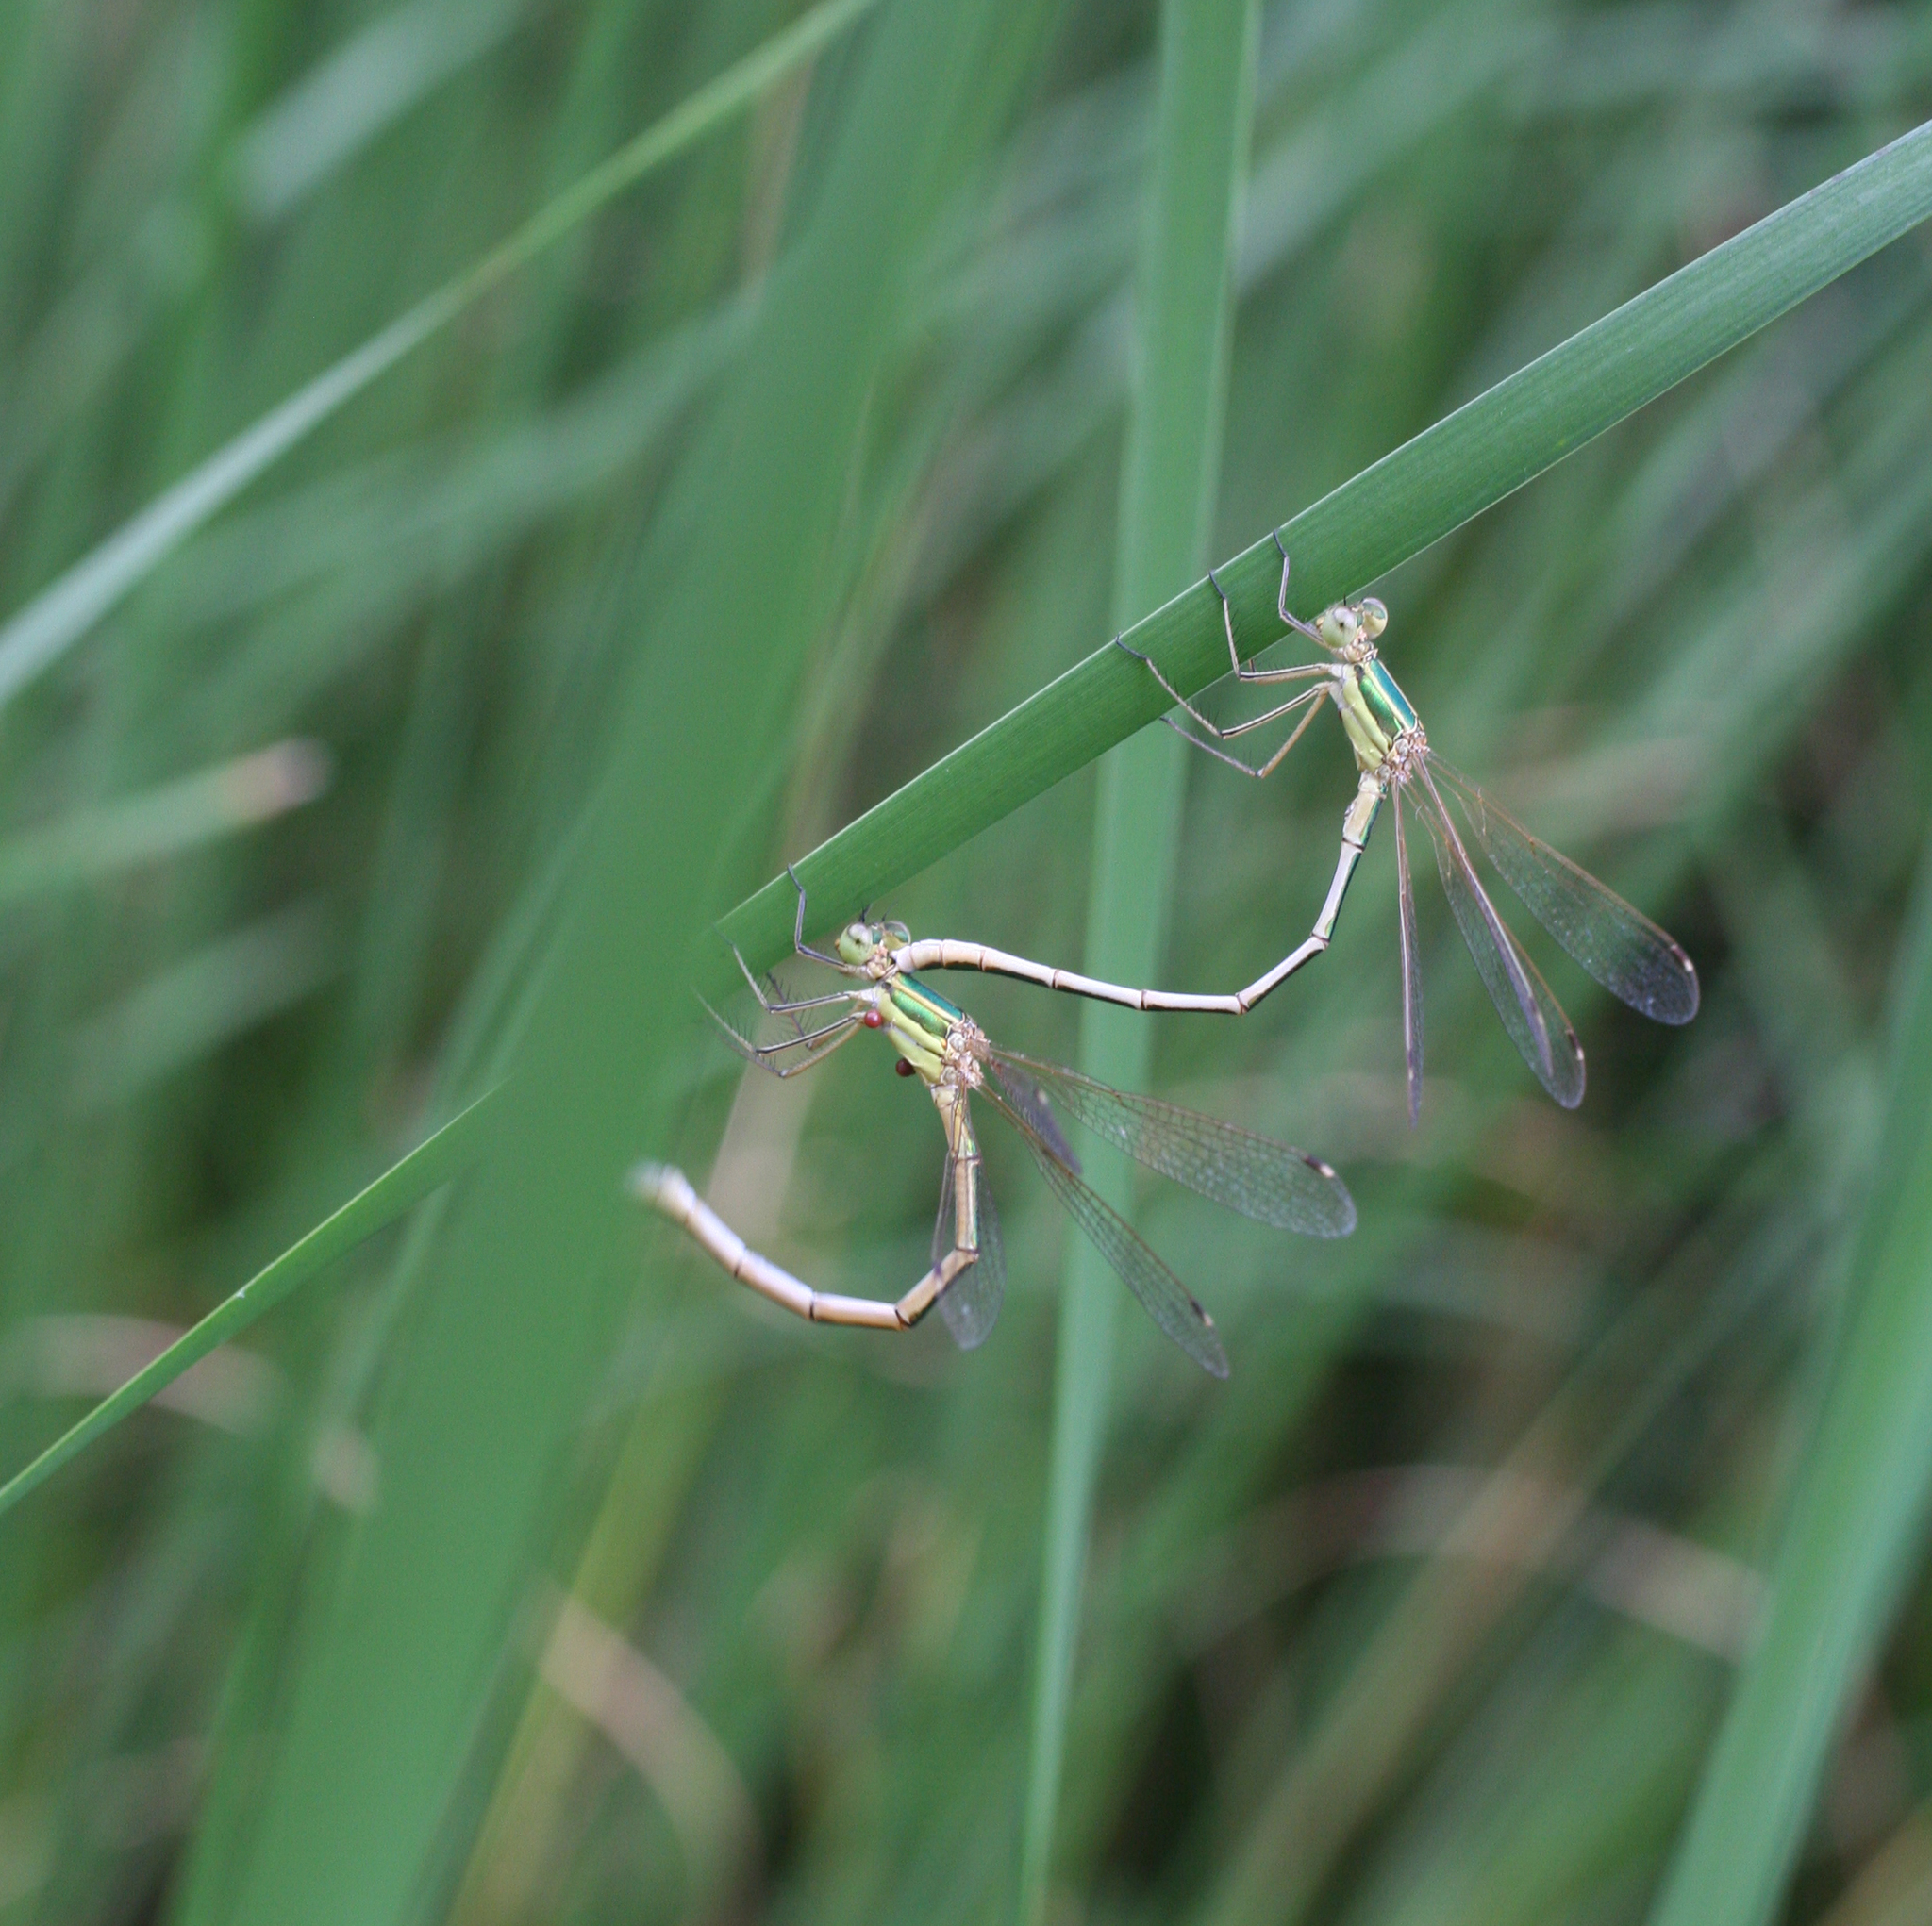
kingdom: Animalia
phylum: Arthropoda
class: Insecta
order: Odonata
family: Lestidae
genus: Lestes
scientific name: Lestes barbarus
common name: Migrant spreadwing
